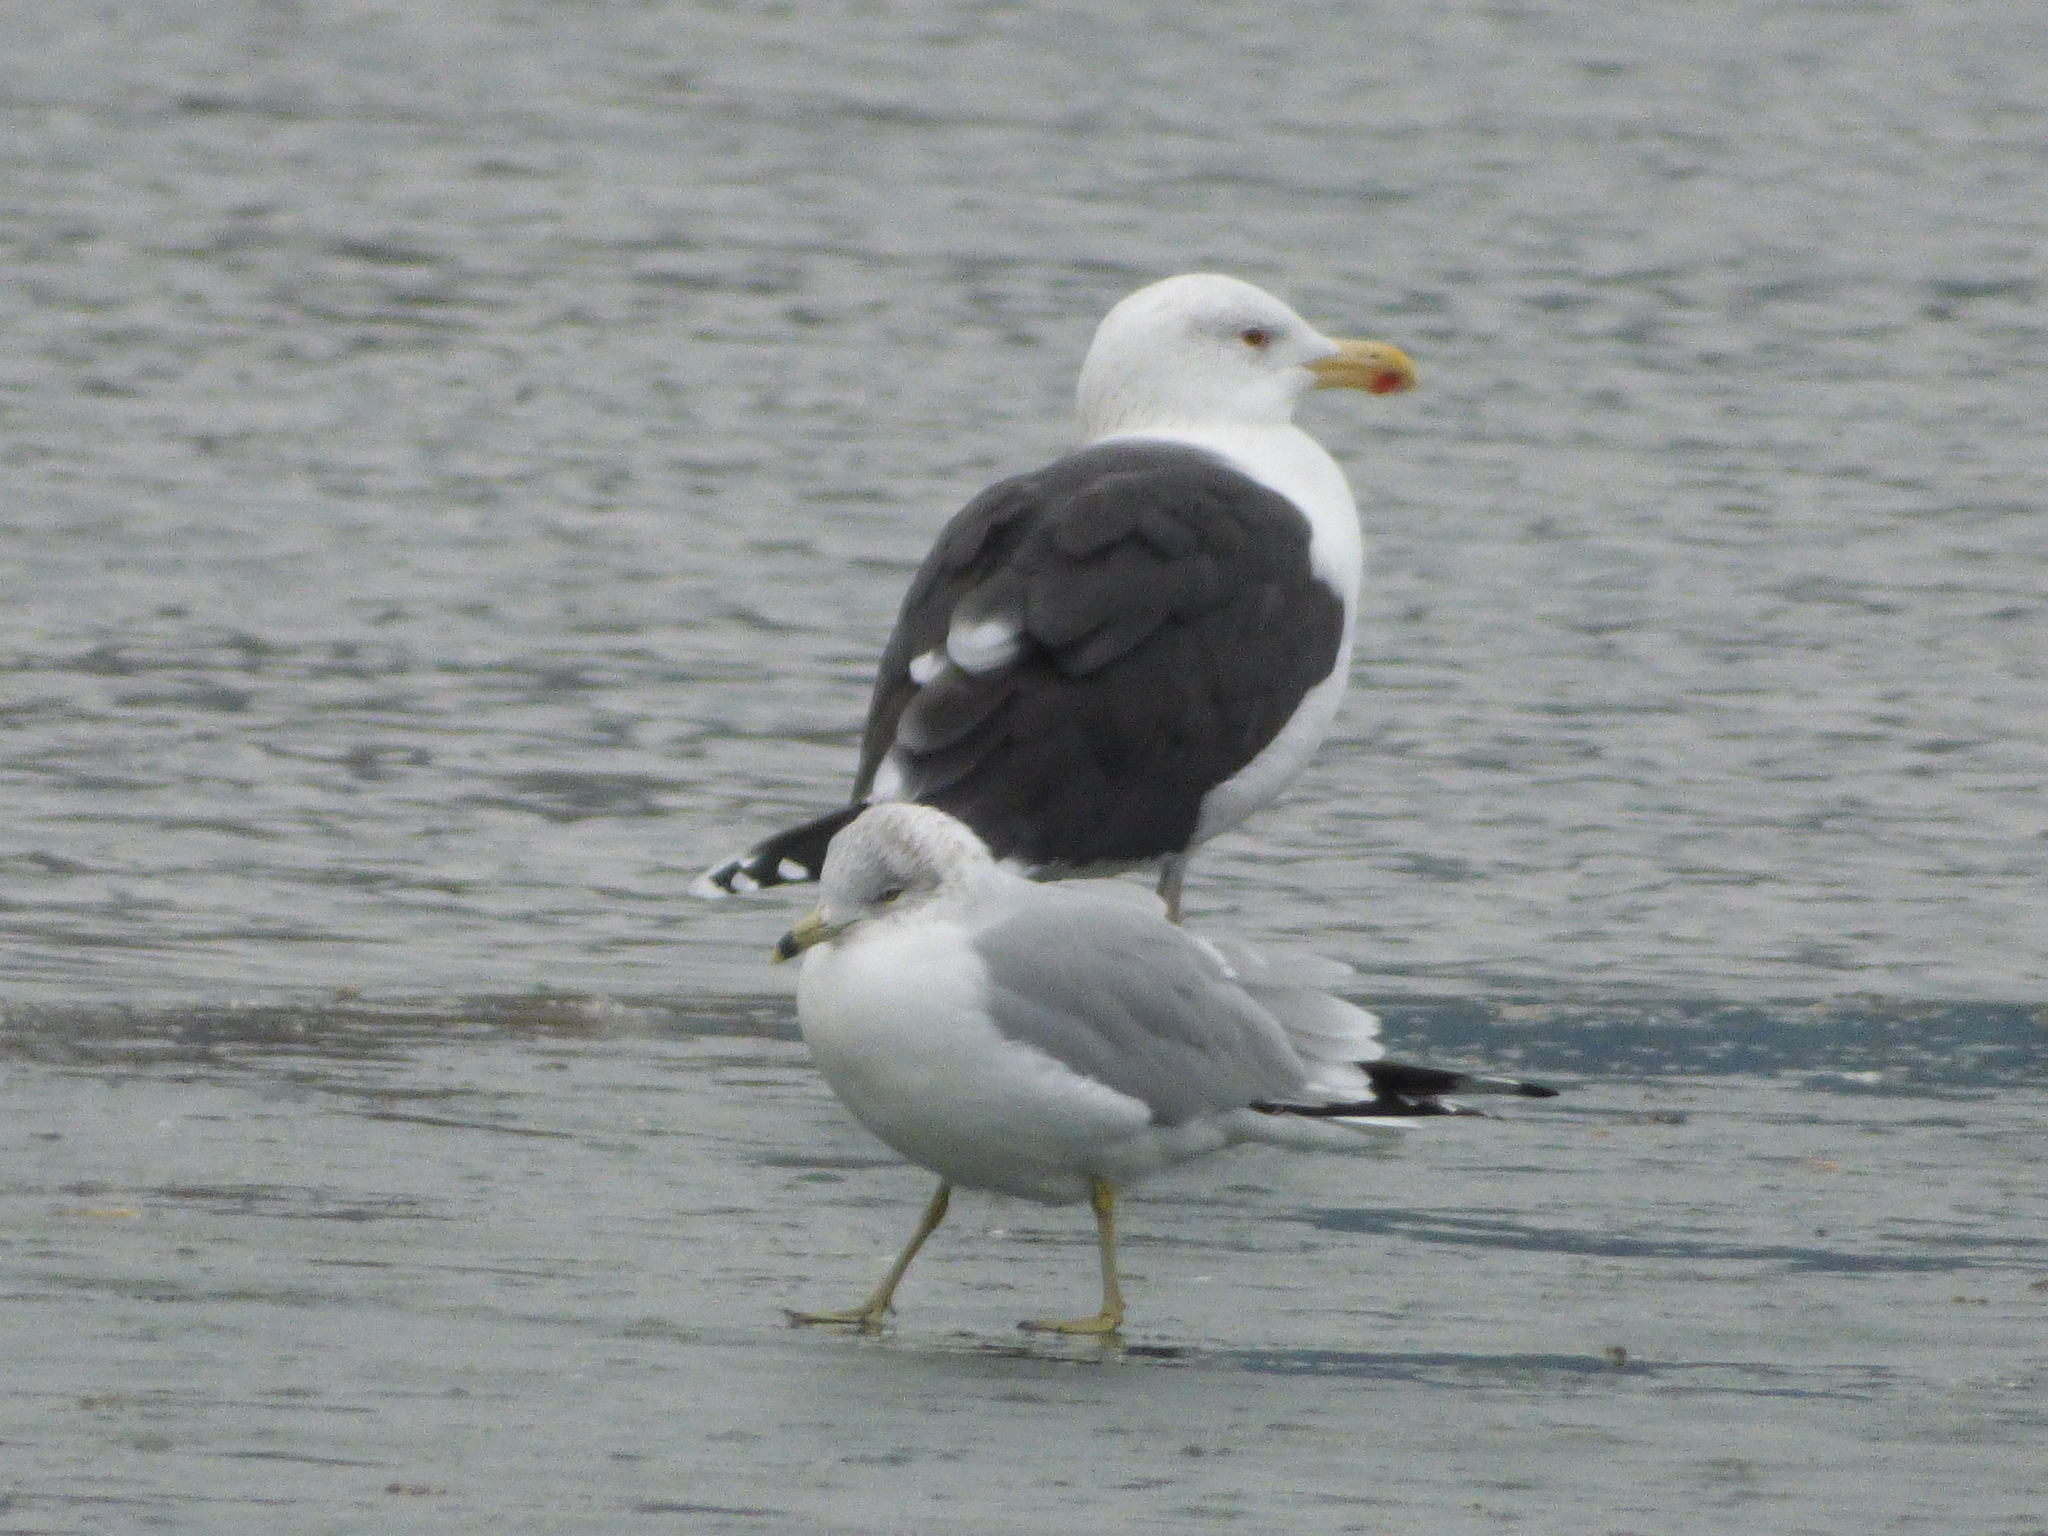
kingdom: Animalia
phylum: Chordata
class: Aves
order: Charadriiformes
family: Laridae
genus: Larus
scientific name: Larus marinus
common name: Great black-backed gull
